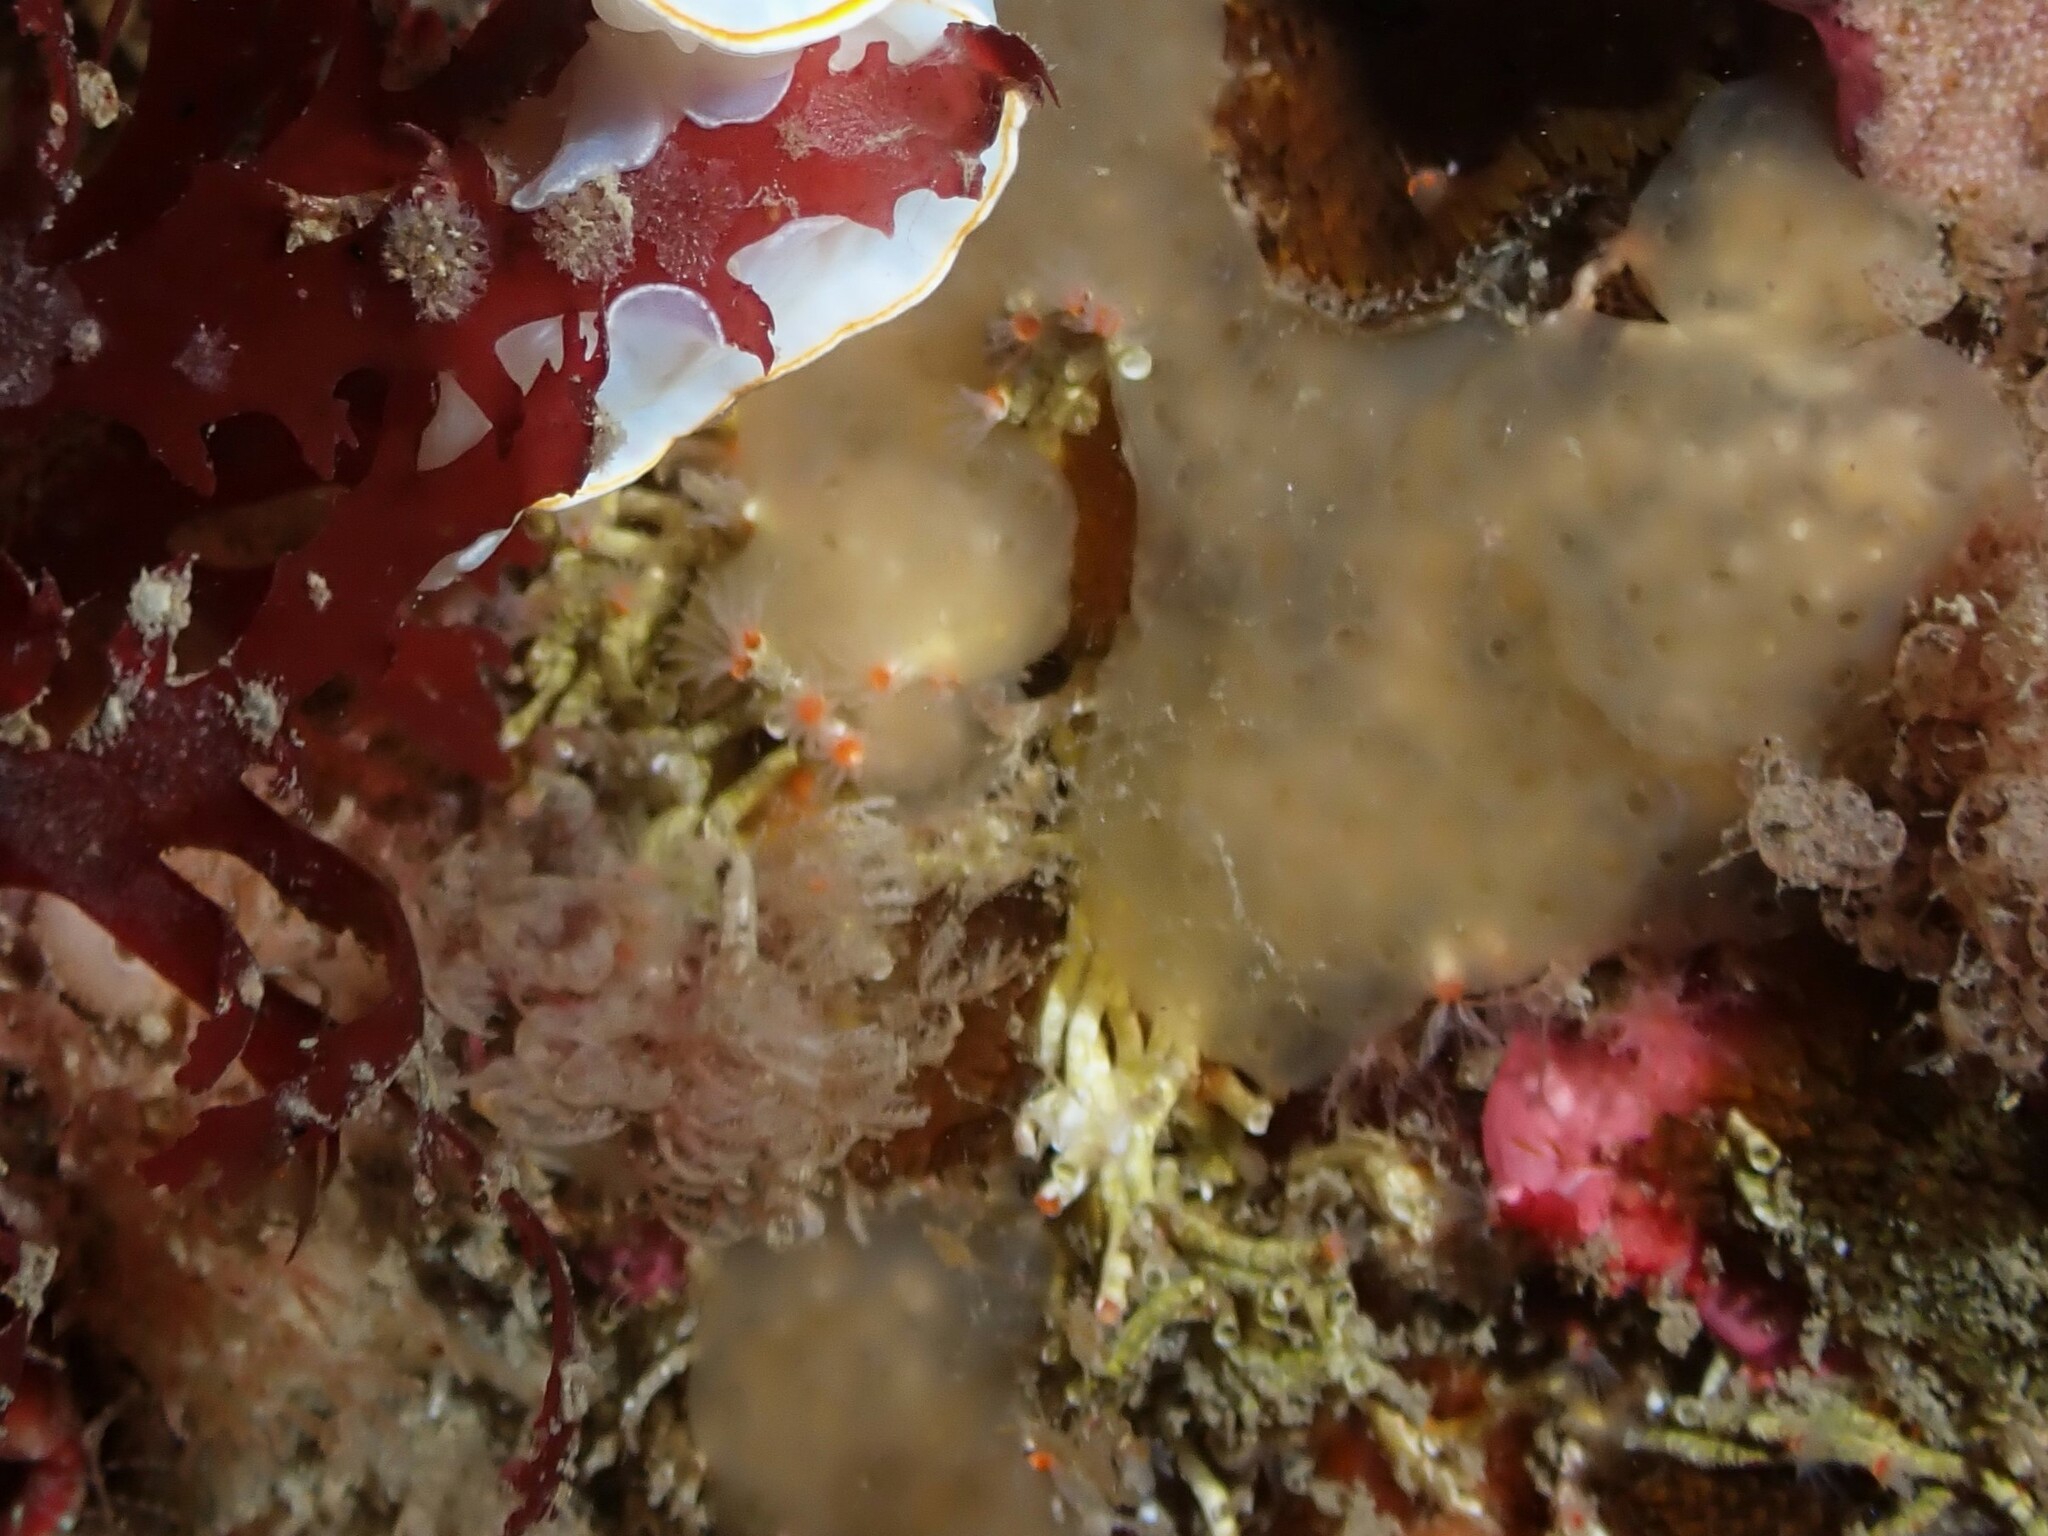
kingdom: Animalia
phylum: Annelida
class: Polychaeta
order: Sabellida
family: Serpulidae
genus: Salmacina
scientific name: Salmacina australis
